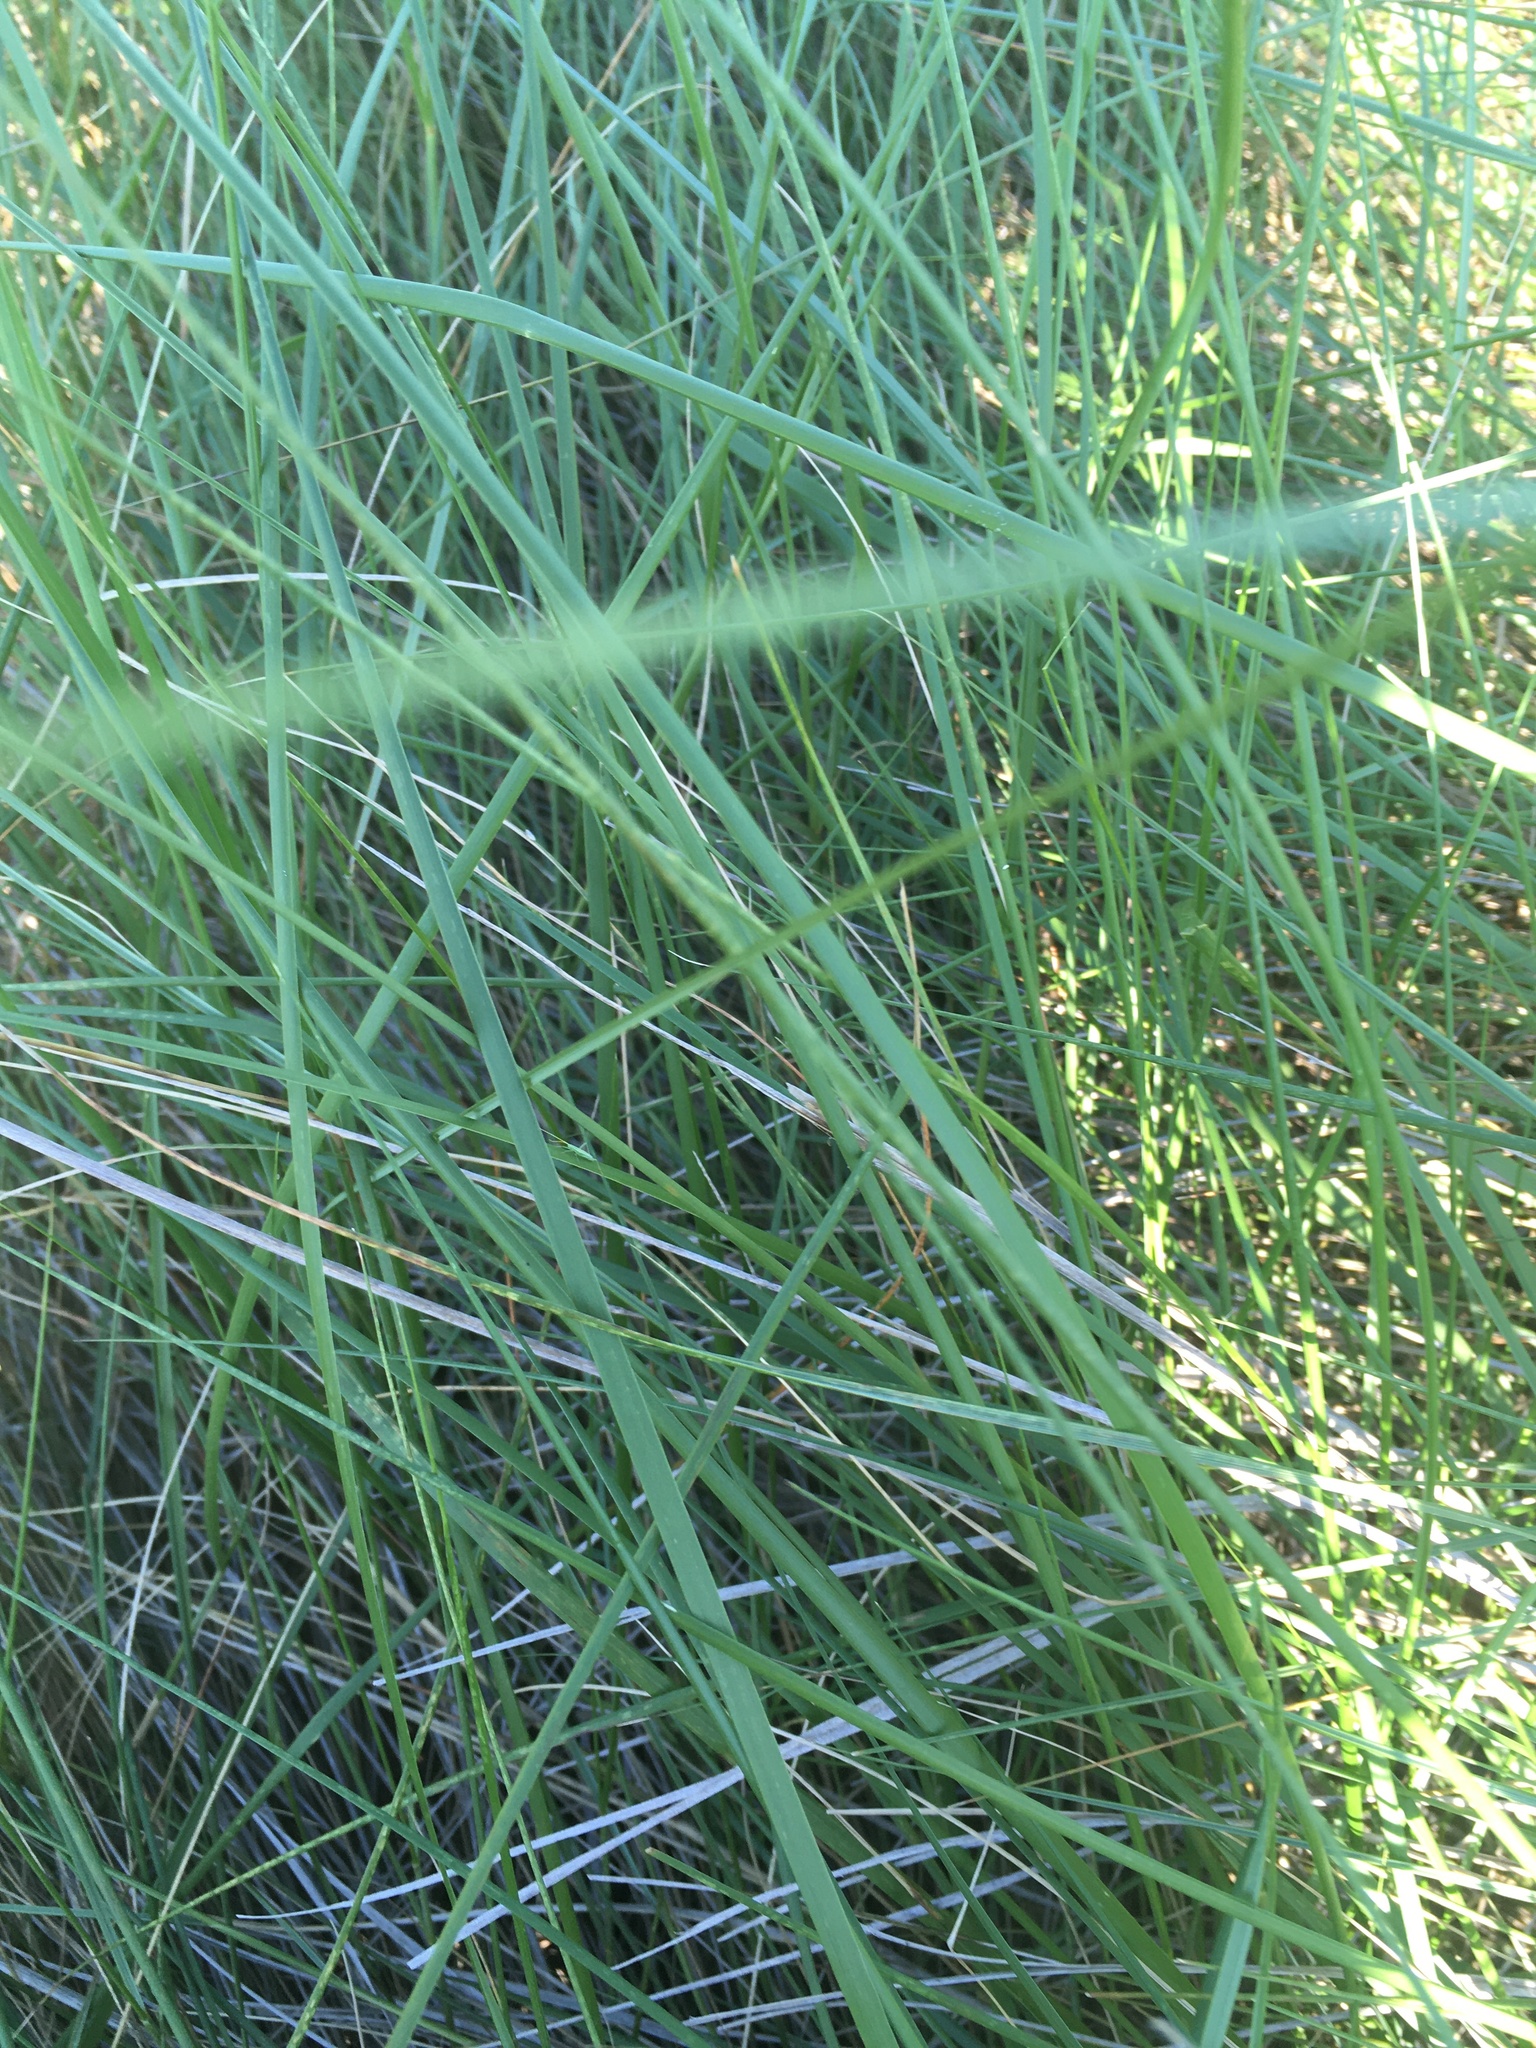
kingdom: Plantae
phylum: Tracheophyta
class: Liliopsida
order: Poales
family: Poaceae
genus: Sporobolus
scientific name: Sporobolus pumilus
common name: Highwater grass
